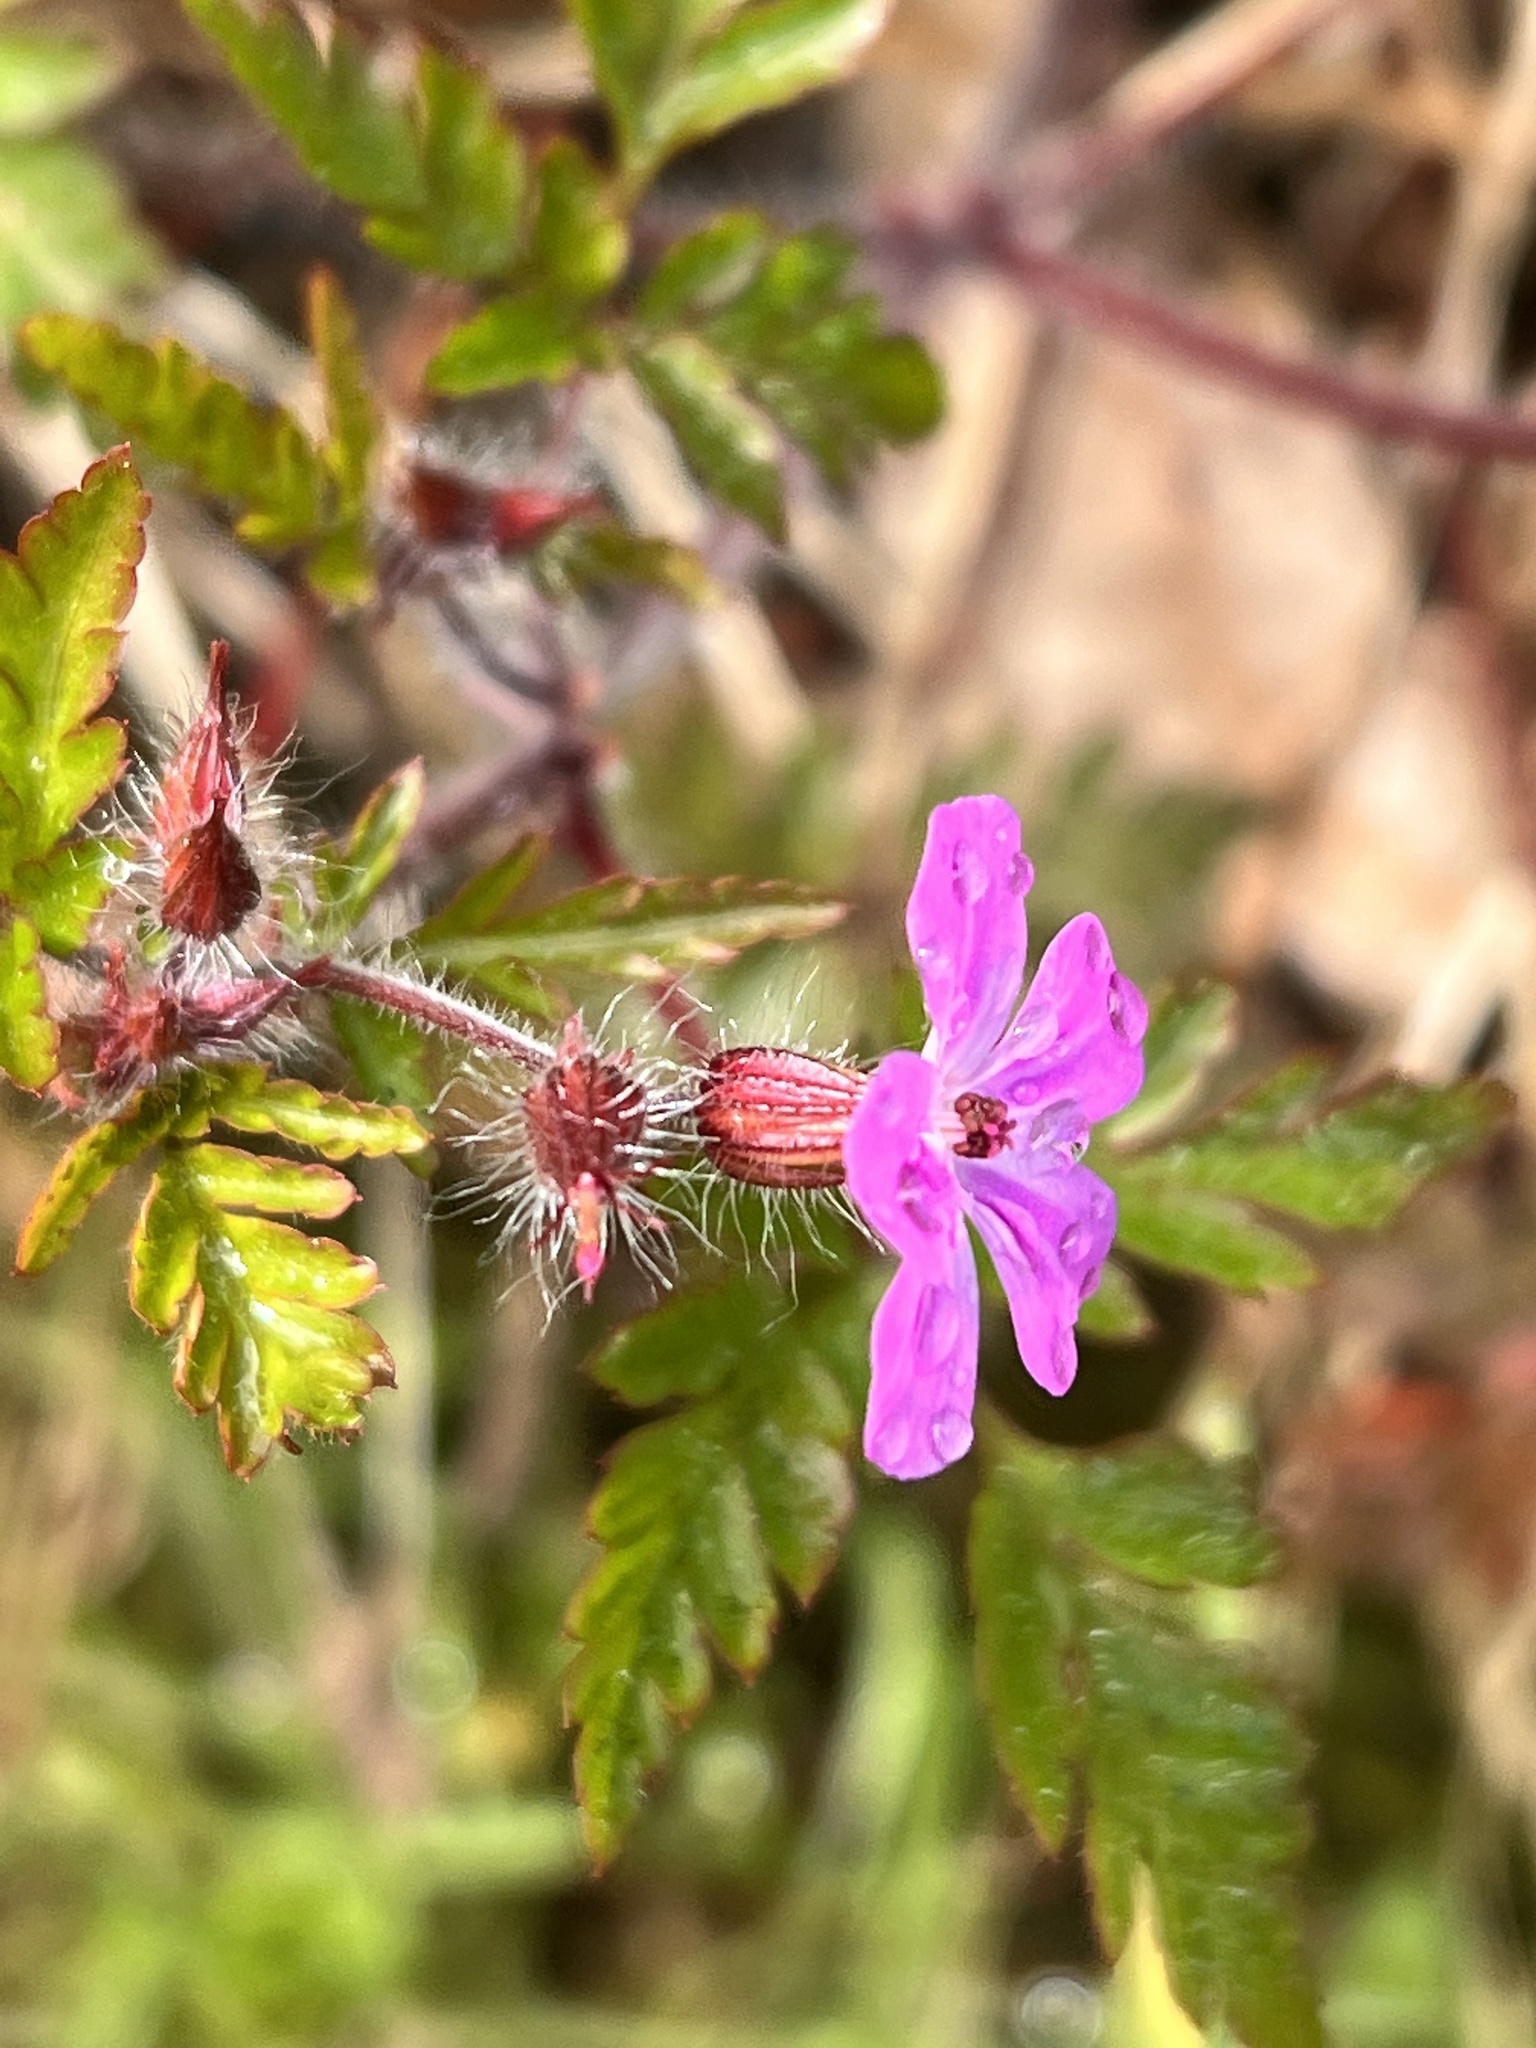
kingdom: Plantae
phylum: Tracheophyta
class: Magnoliopsida
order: Geraniales
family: Geraniaceae
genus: Geranium
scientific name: Geranium robertianum
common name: Herb-robert
